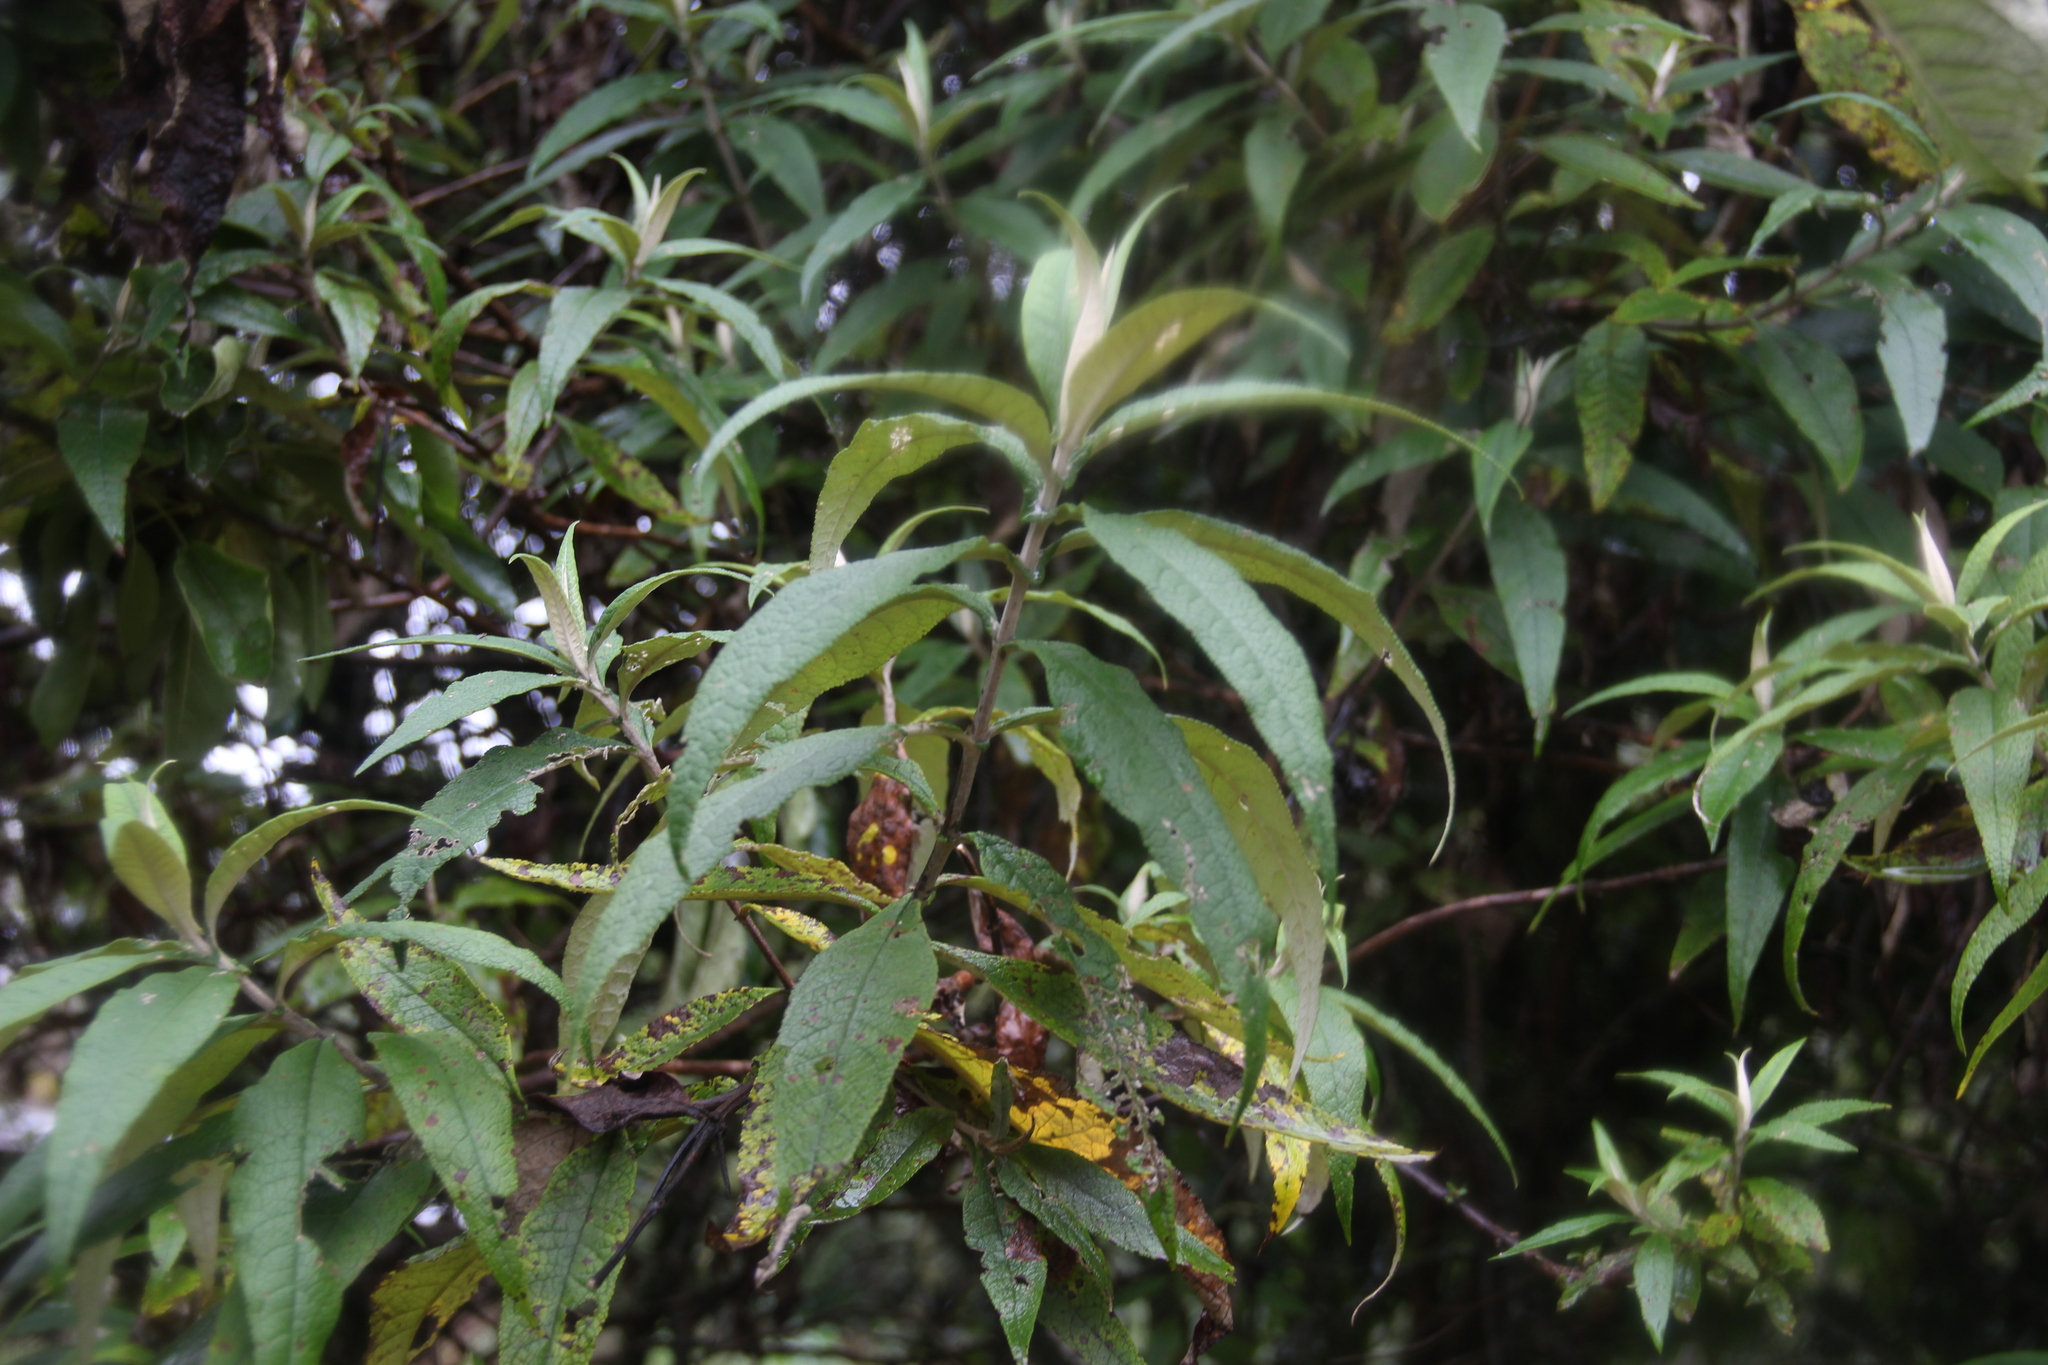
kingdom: Plantae
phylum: Tracheophyta
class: Magnoliopsida
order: Lamiales
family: Scrophulariaceae
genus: Buddleja
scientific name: Buddleja globosa
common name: Orange-ball-tree
